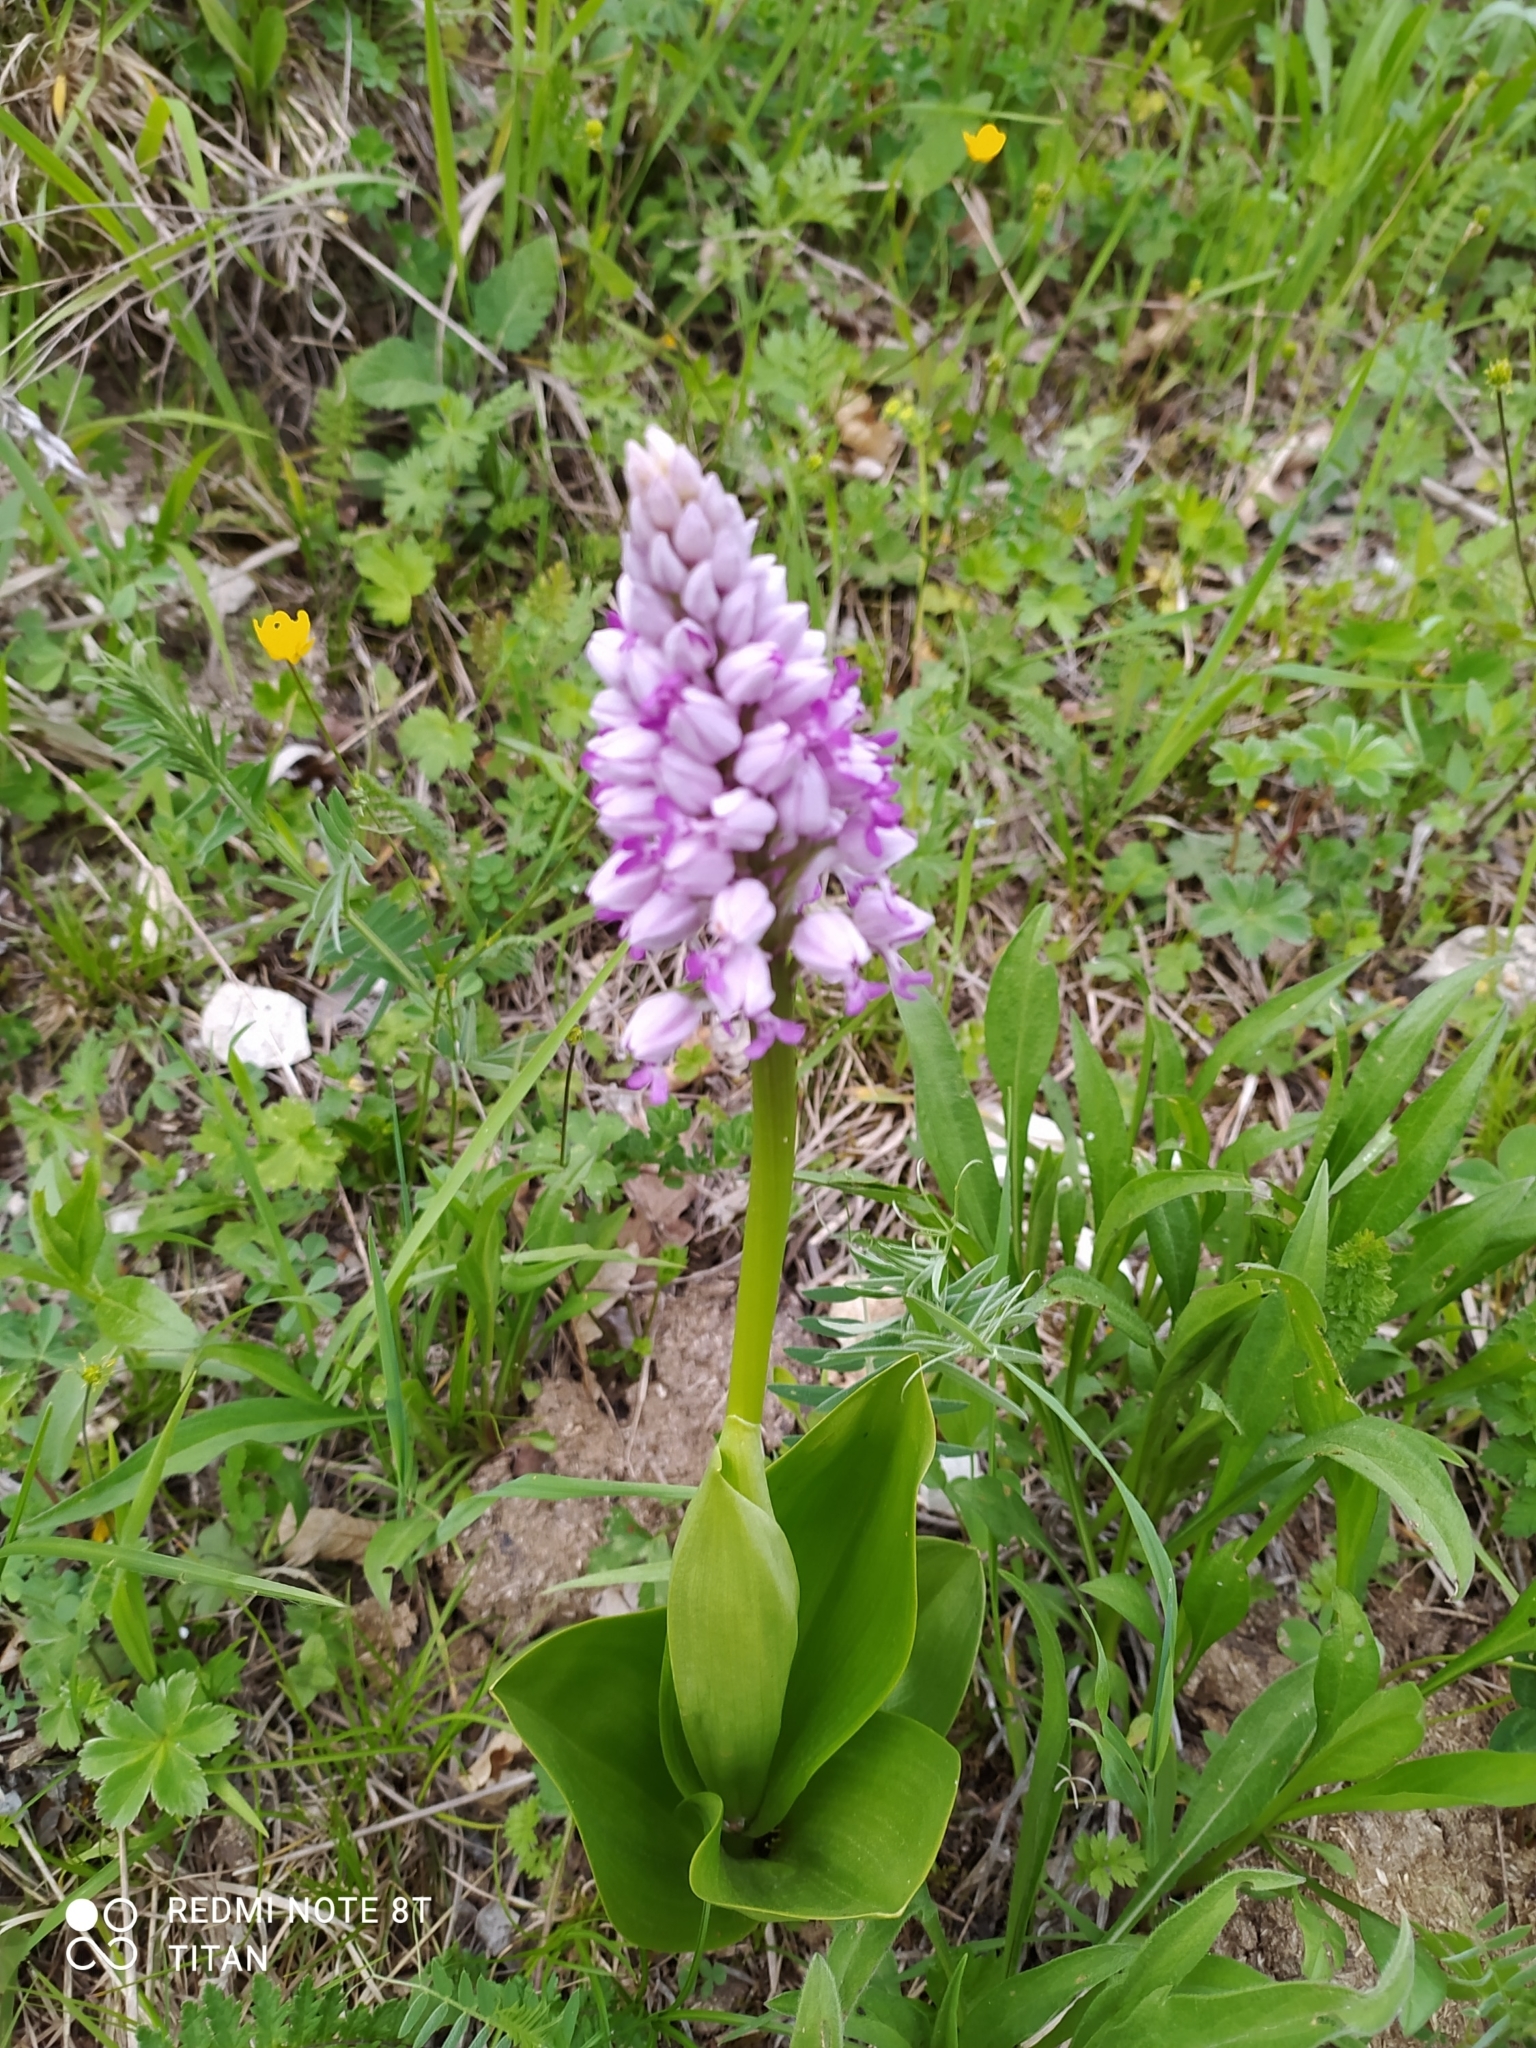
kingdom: Plantae
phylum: Tracheophyta
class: Liliopsida
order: Asparagales
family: Orchidaceae
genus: Orchis
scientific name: Orchis militaris
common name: Military orchid
